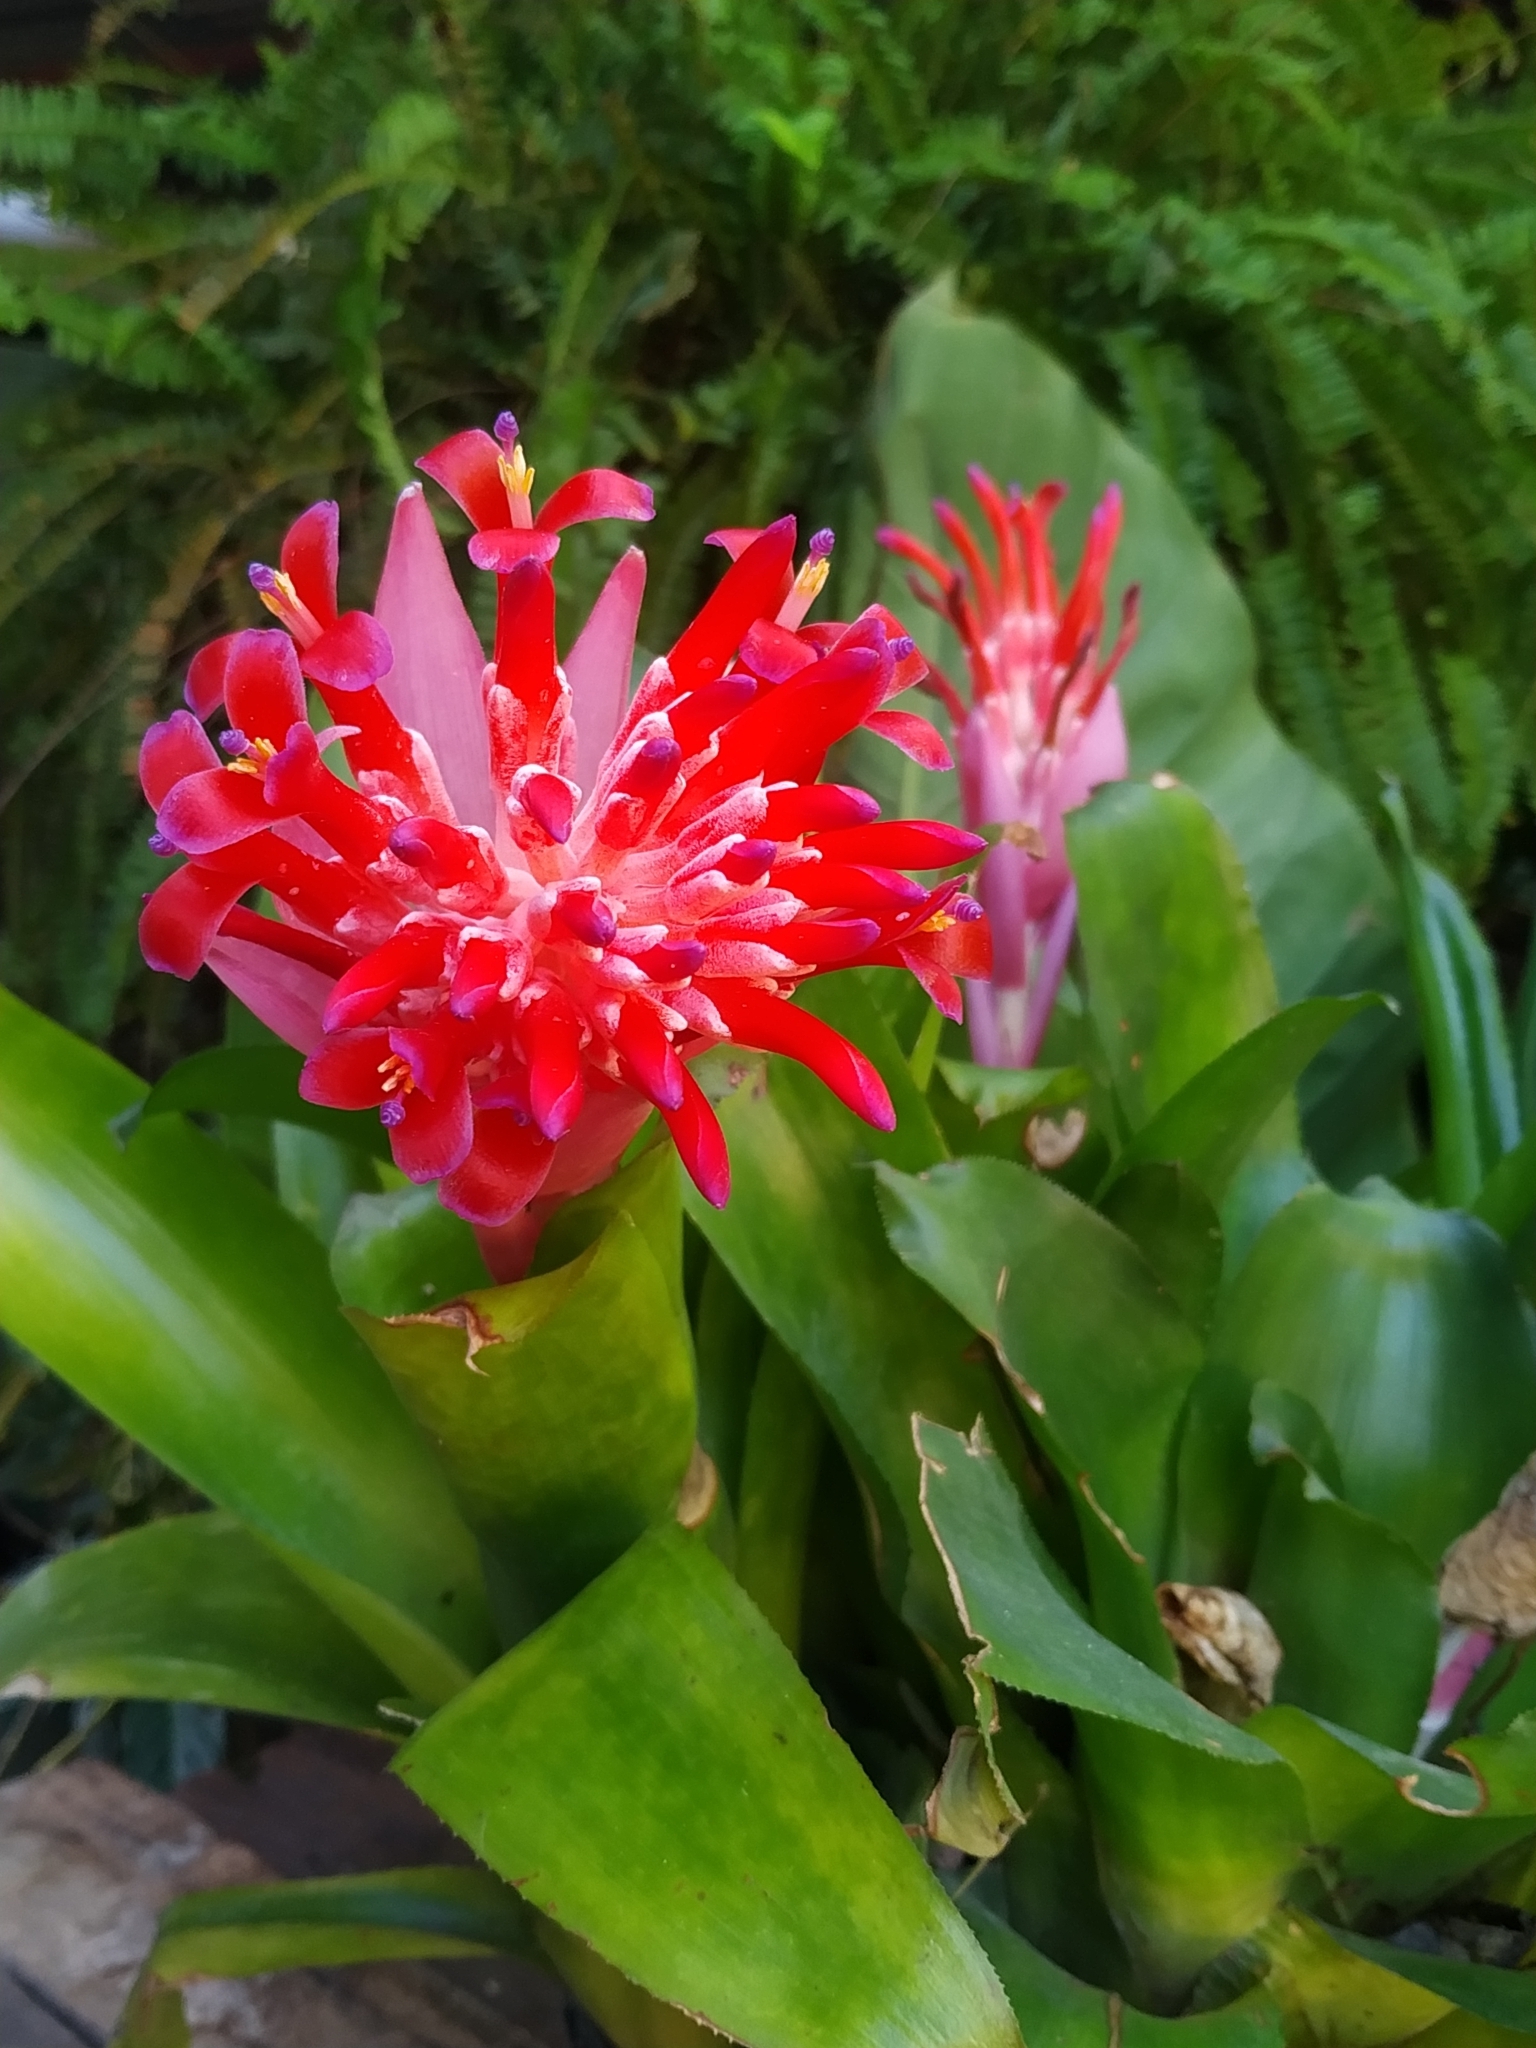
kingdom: Plantae
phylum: Tracheophyta
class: Liliopsida
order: Poales
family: Bromeliaceae
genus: Billbergia
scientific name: Billbergia pyramidalis
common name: Foolproofplant
